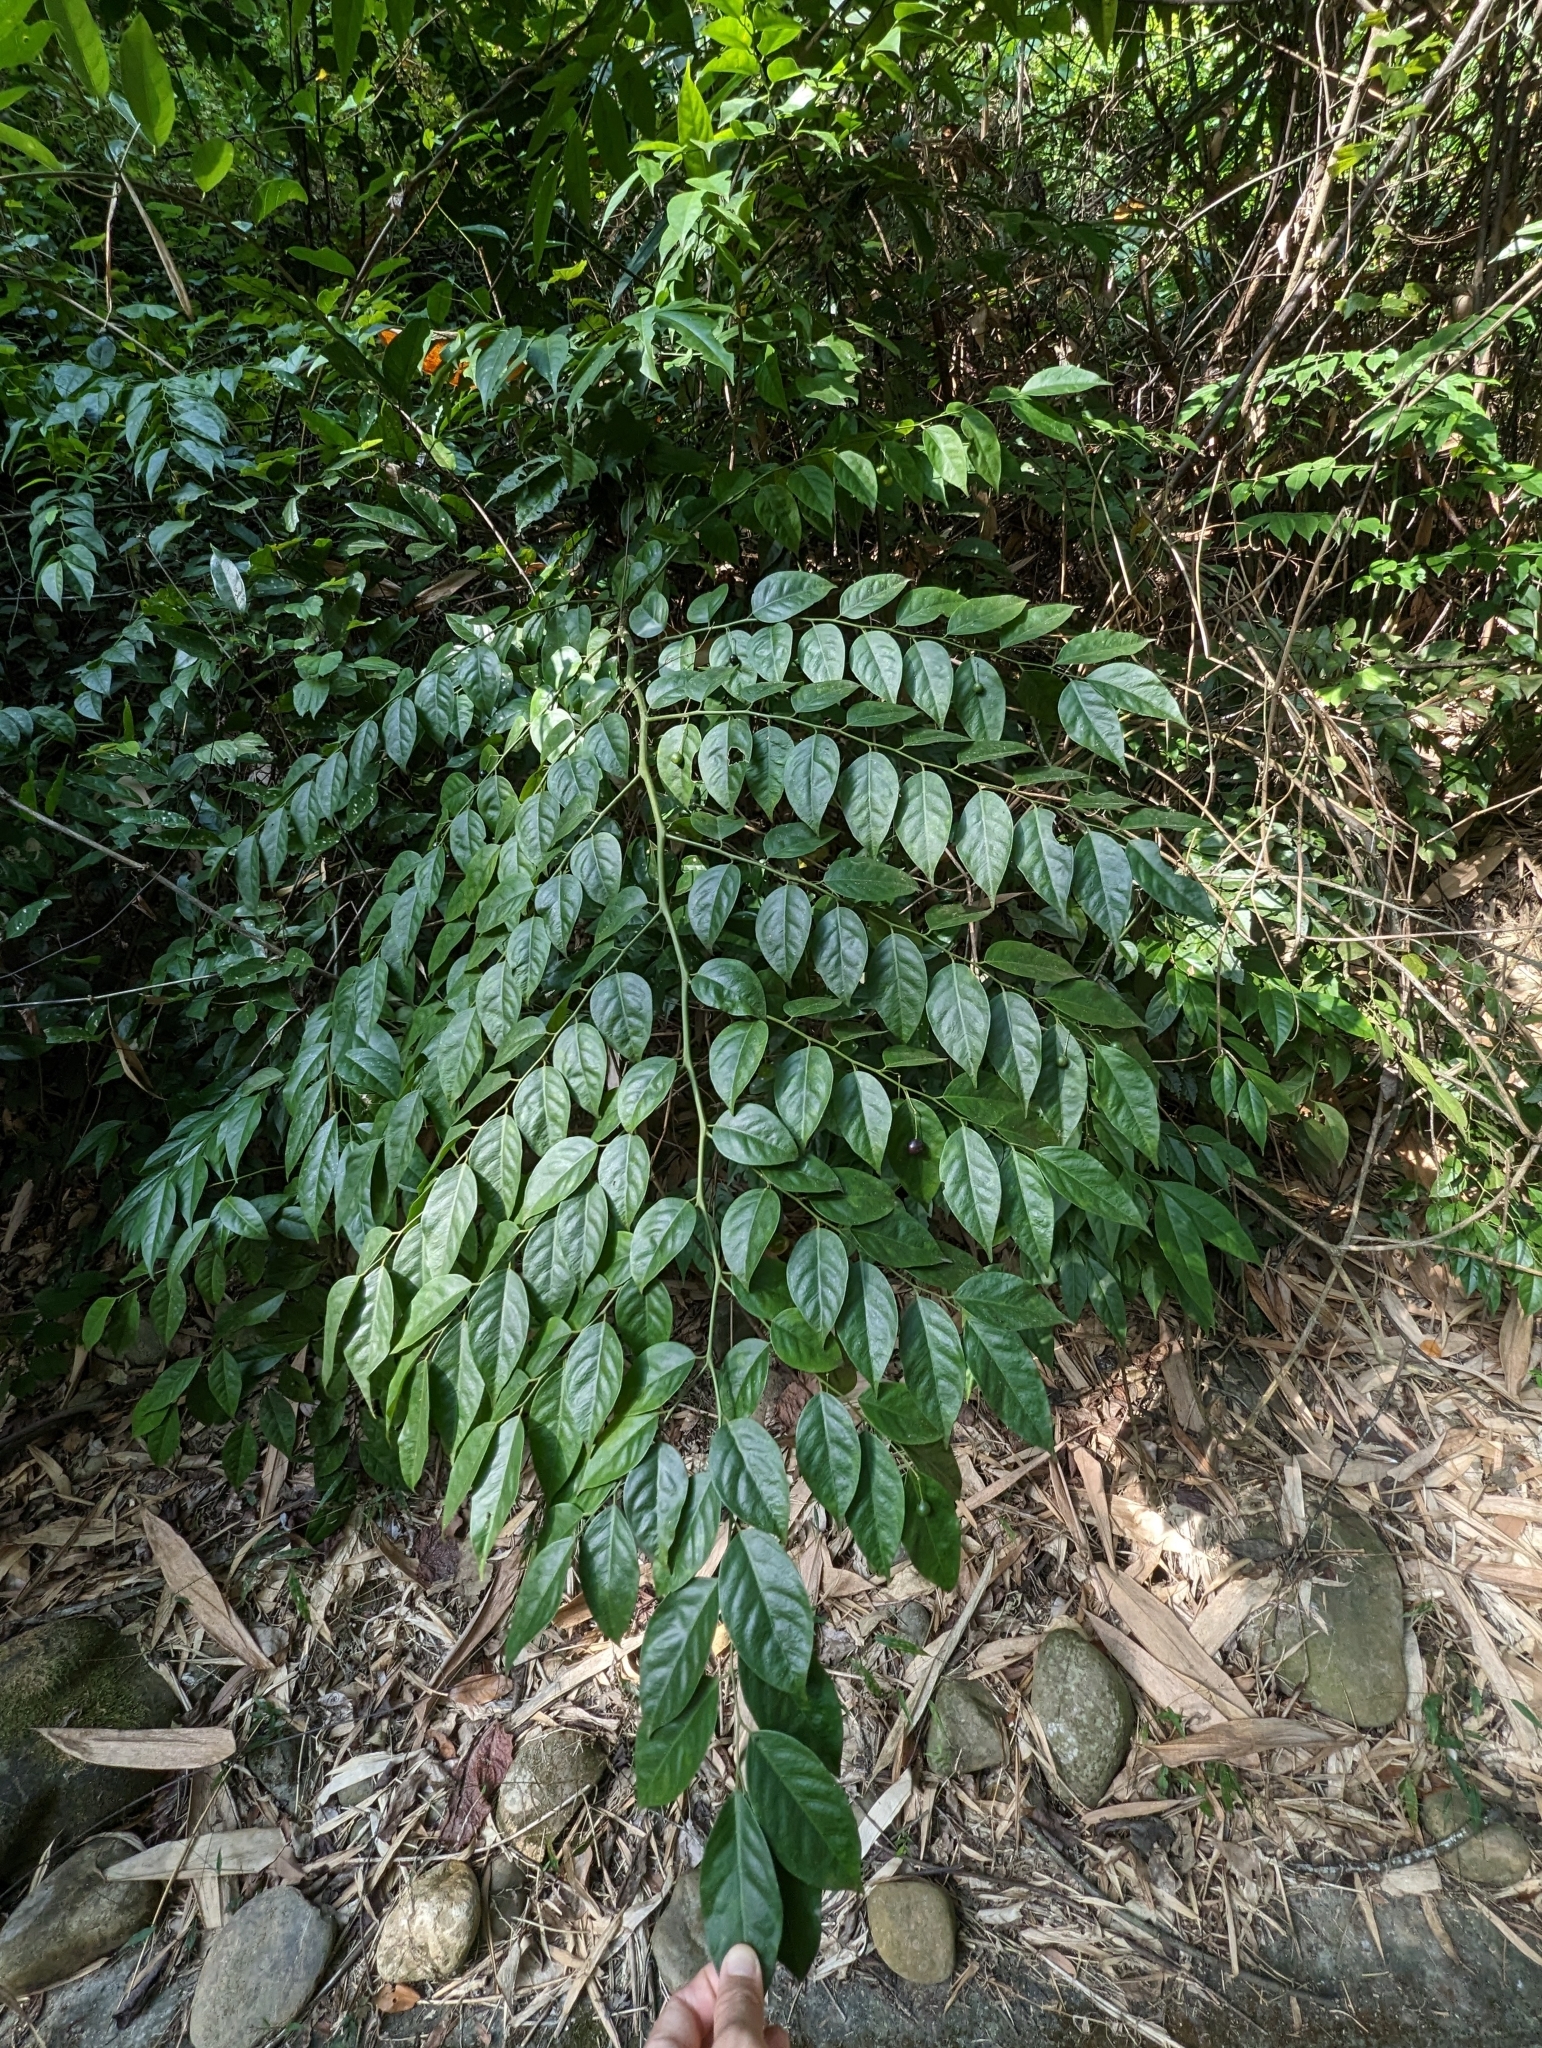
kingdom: Plantae
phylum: Tracheophyta
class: Magnoliopsida
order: Brassicales
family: Capparaceae
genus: Capparis
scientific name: Capparis sabiifolia
